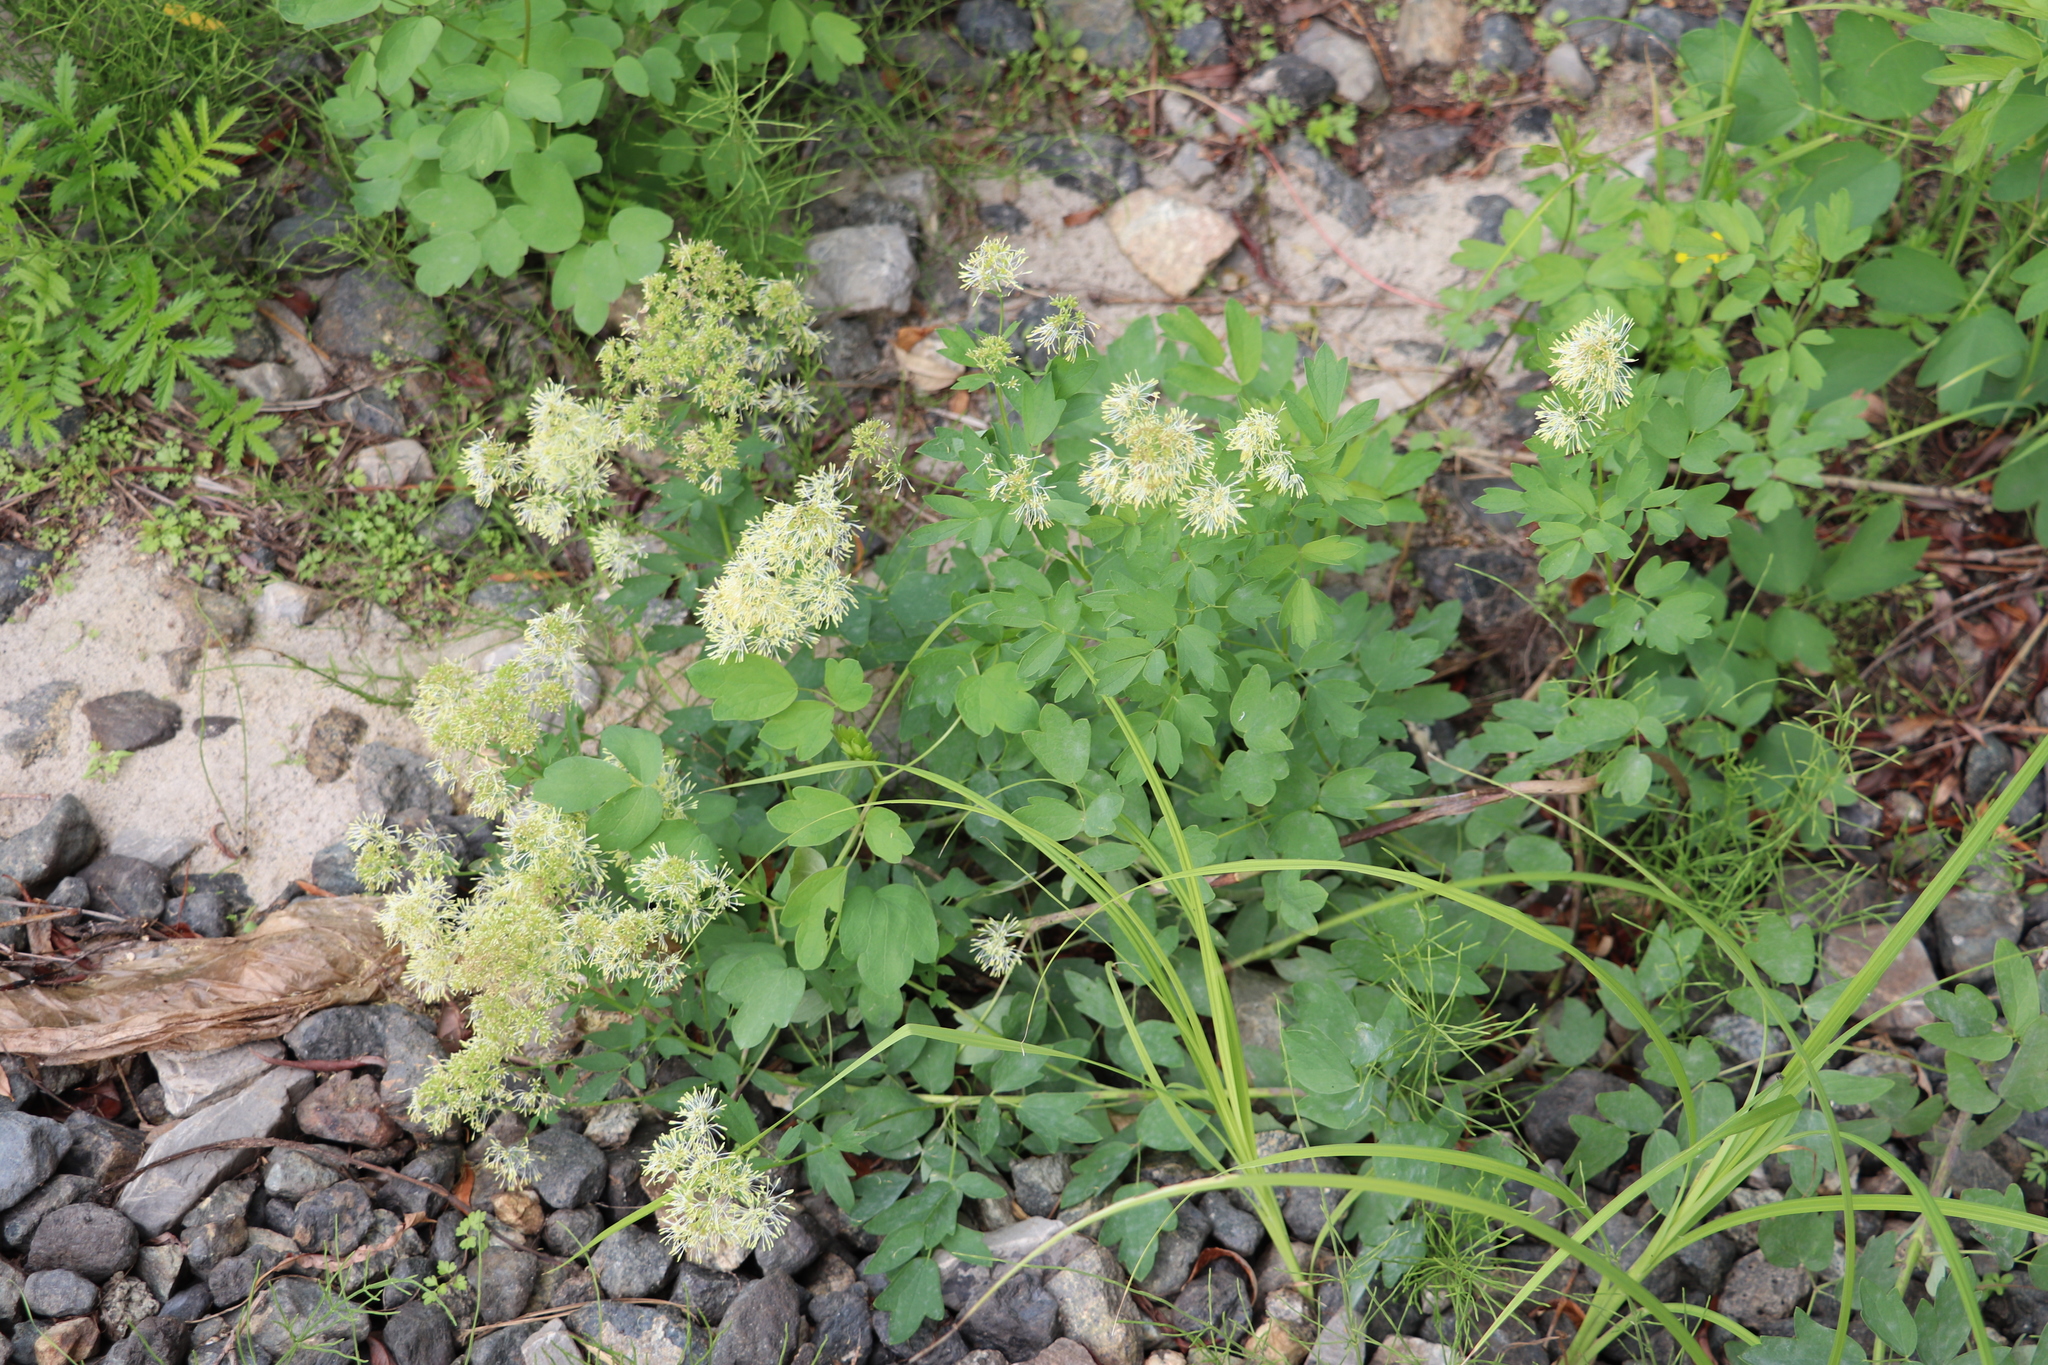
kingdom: Plantae
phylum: Tracheophyta
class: Magnoliopsida
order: Ranunculales
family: Ranunculaceae
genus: Thalictrum
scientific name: Thalictrum flavum
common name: Common meadow-rue
